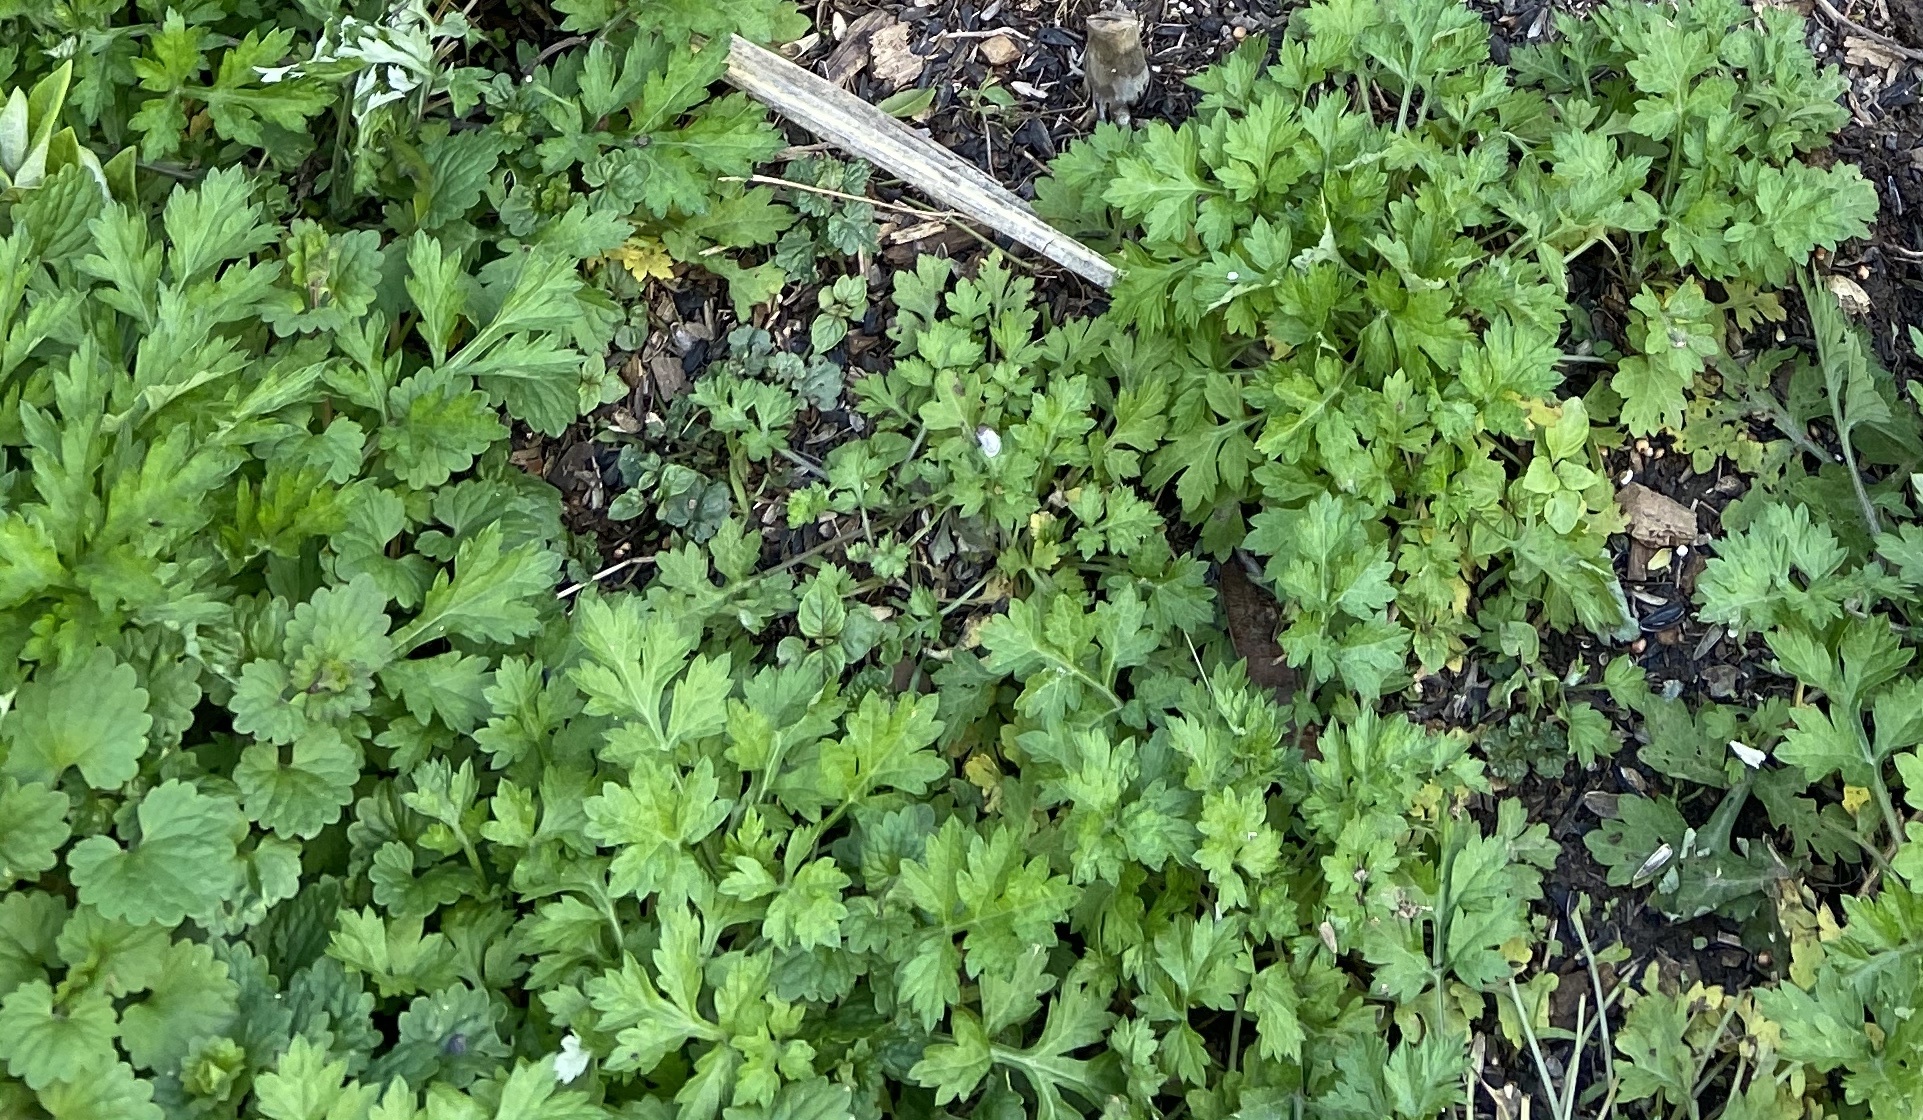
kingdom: Plantae
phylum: Tracheophyta
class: Magnoliopsida
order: Asterales
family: Asteraceae
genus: Artemisia
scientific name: Artemisia vulgaris
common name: Mugwort
